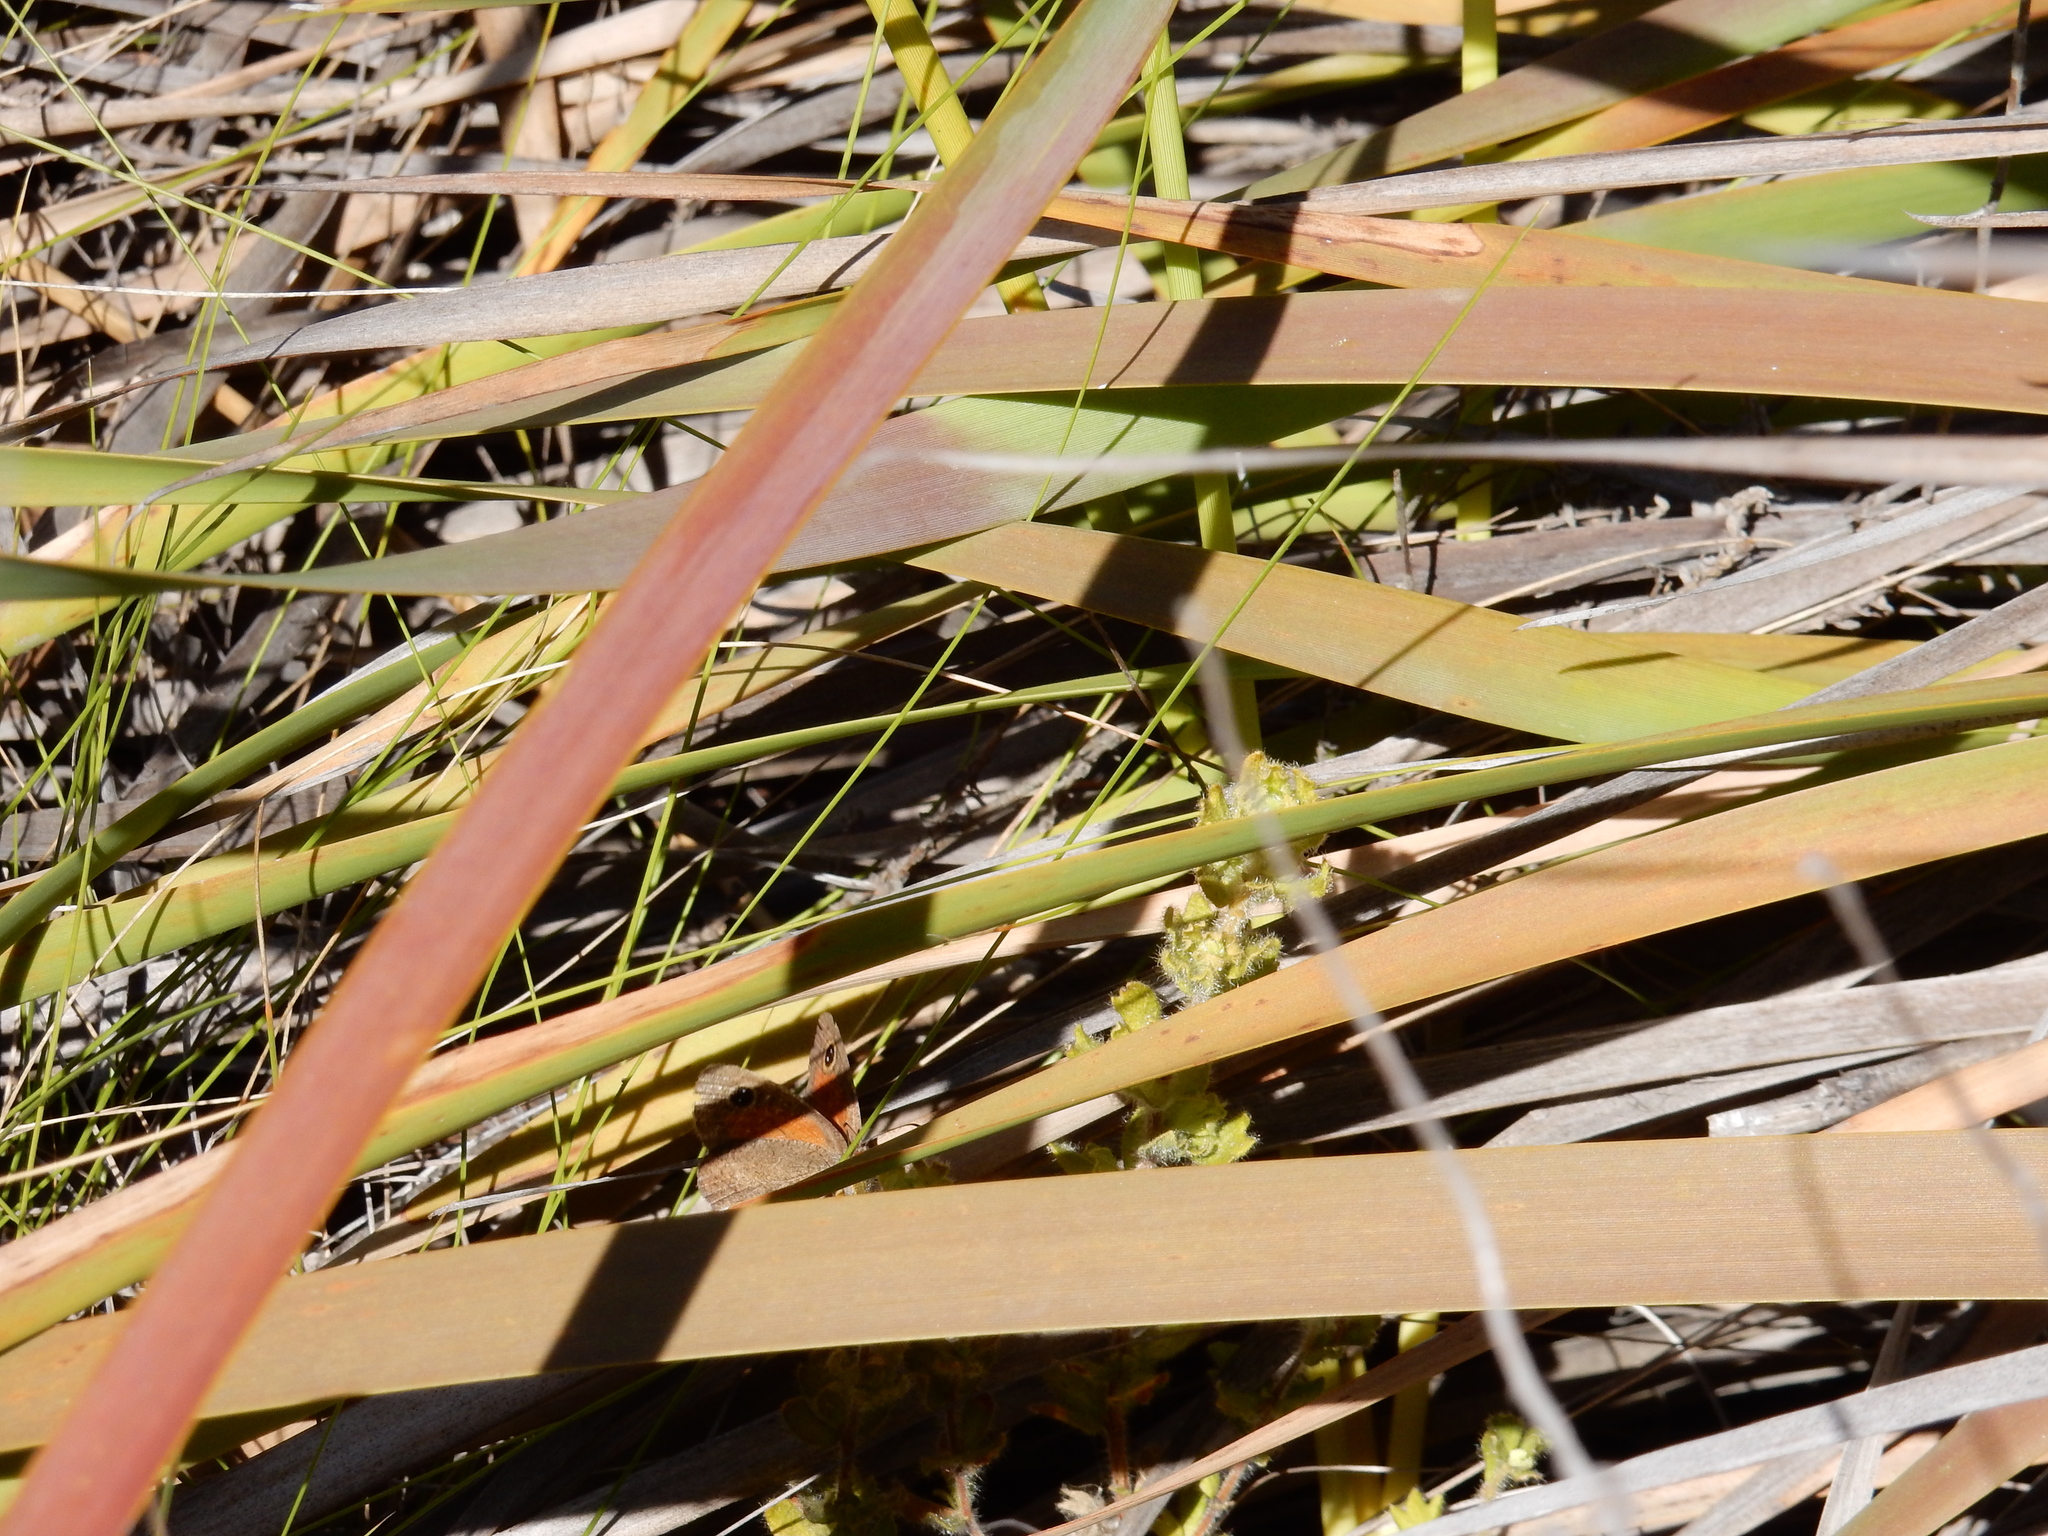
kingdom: Animalia
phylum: Arthropoda
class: Insecta
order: Lepidoptera
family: Nymphalidae
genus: Pseudonympha
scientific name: Pseudonympha detecta
